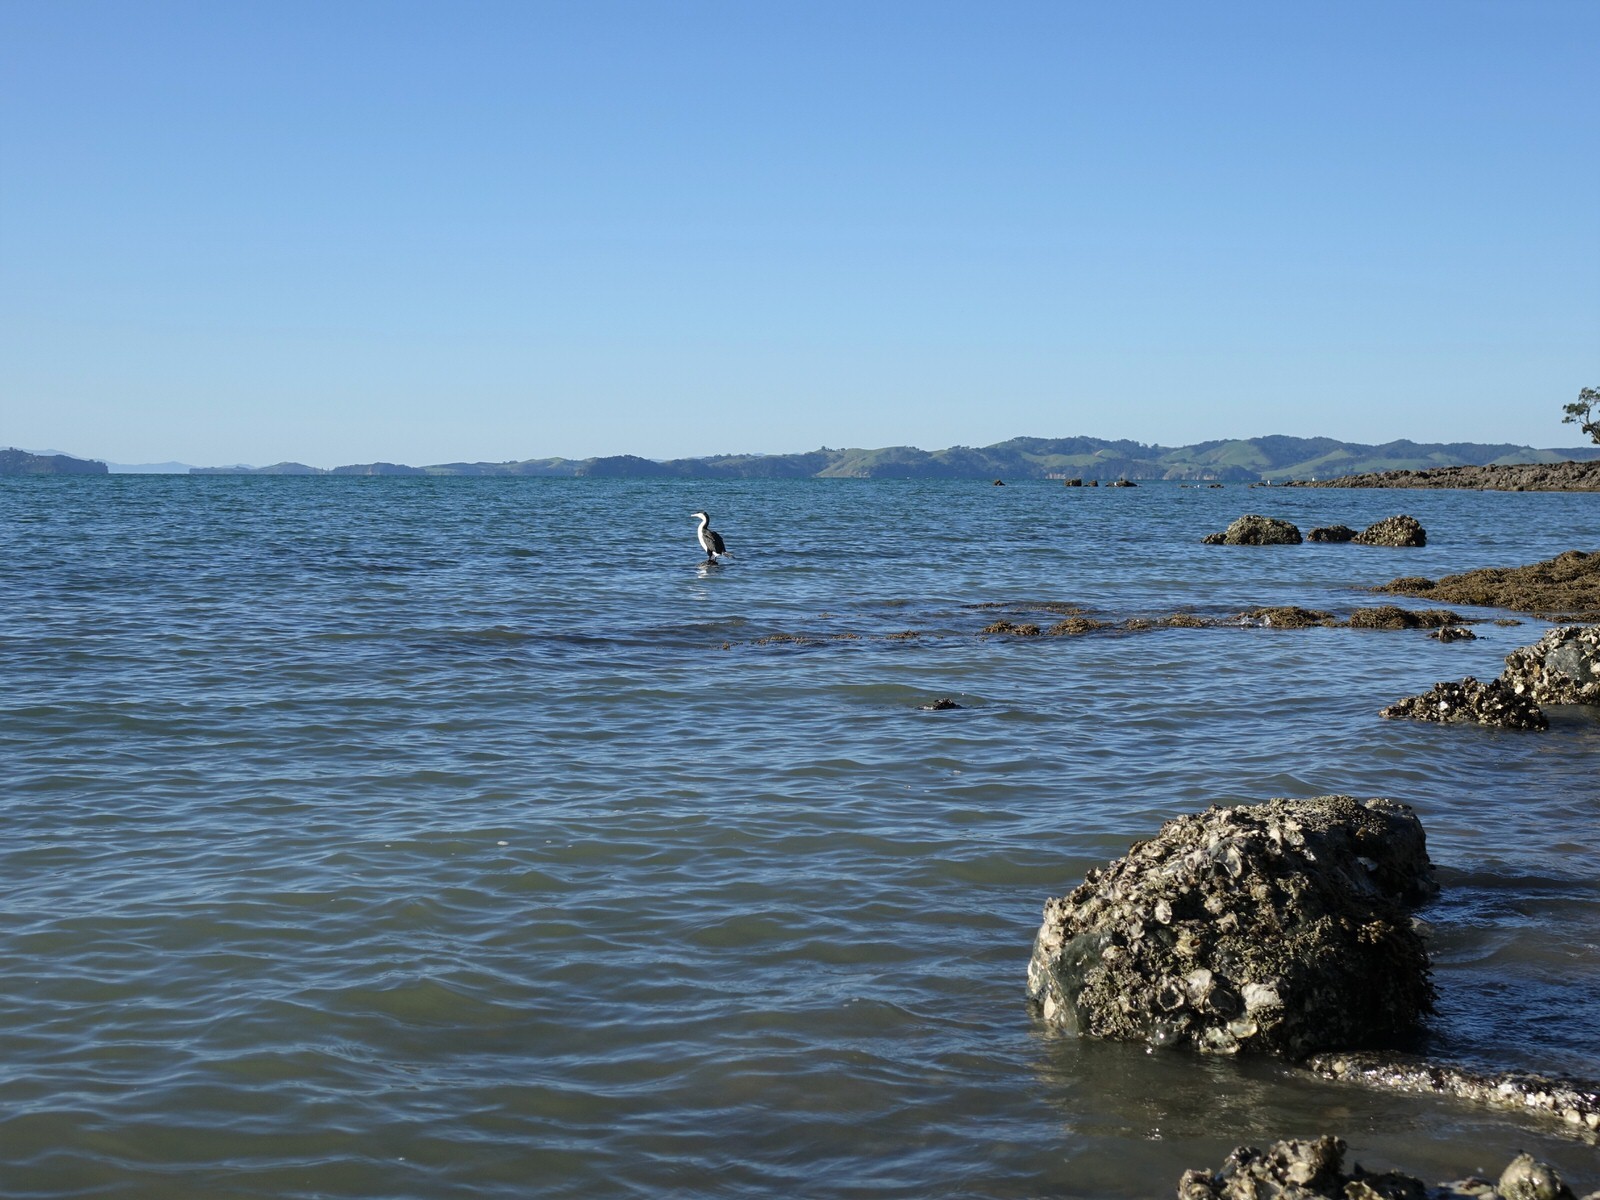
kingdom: Animalia
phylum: Chordata
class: Aves
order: Suliformes
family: Phalacrocoracidae
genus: Phalacrocorax
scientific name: Phalacrocorax varius
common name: Pied cormorant
